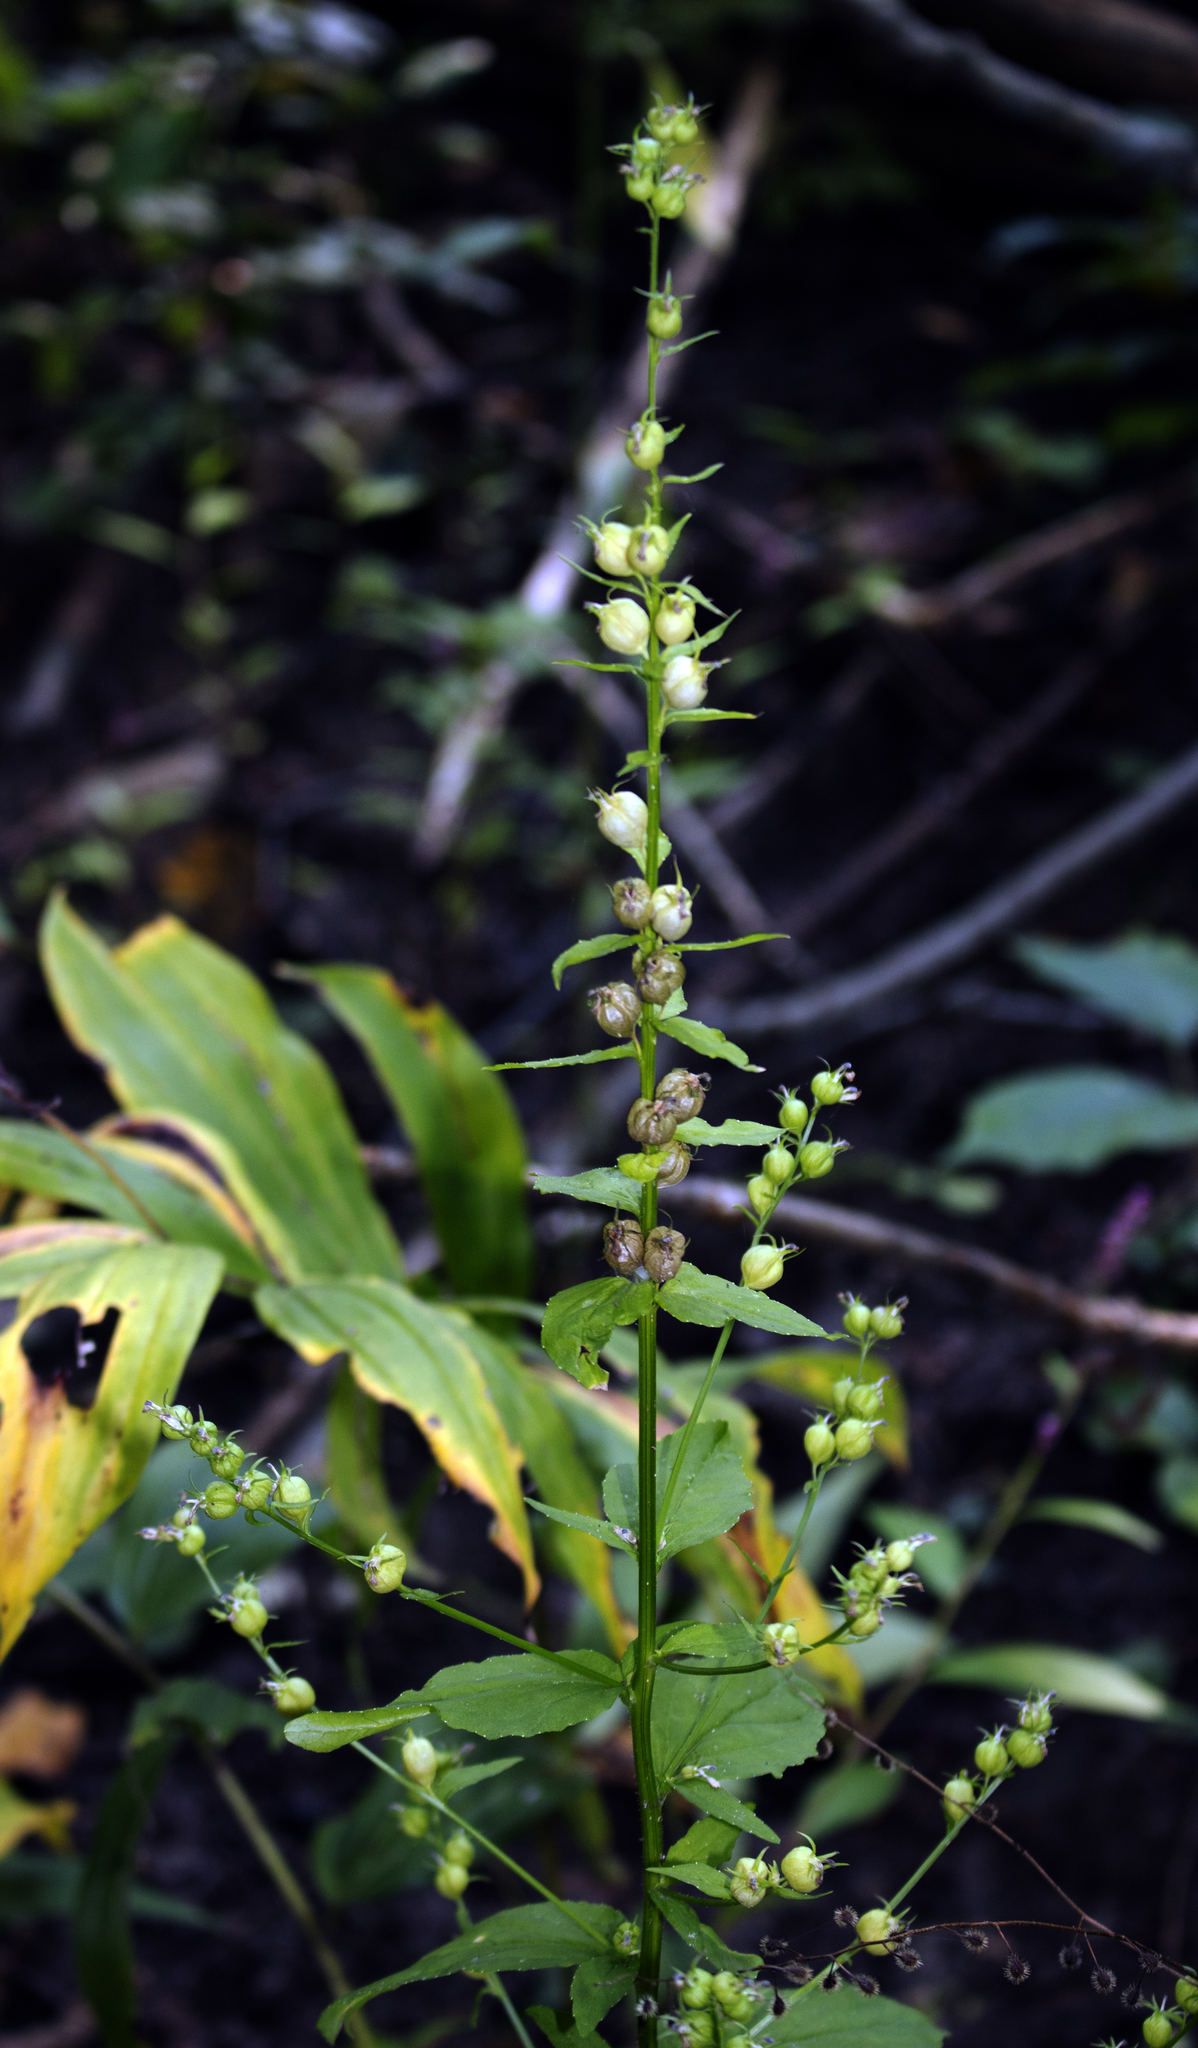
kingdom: Plantae
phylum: Tracheophyta
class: Magnoliopsida
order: Asterales
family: Campanulaceae
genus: Lobelia
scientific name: Lobelia inflata
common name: Indian tobacco
